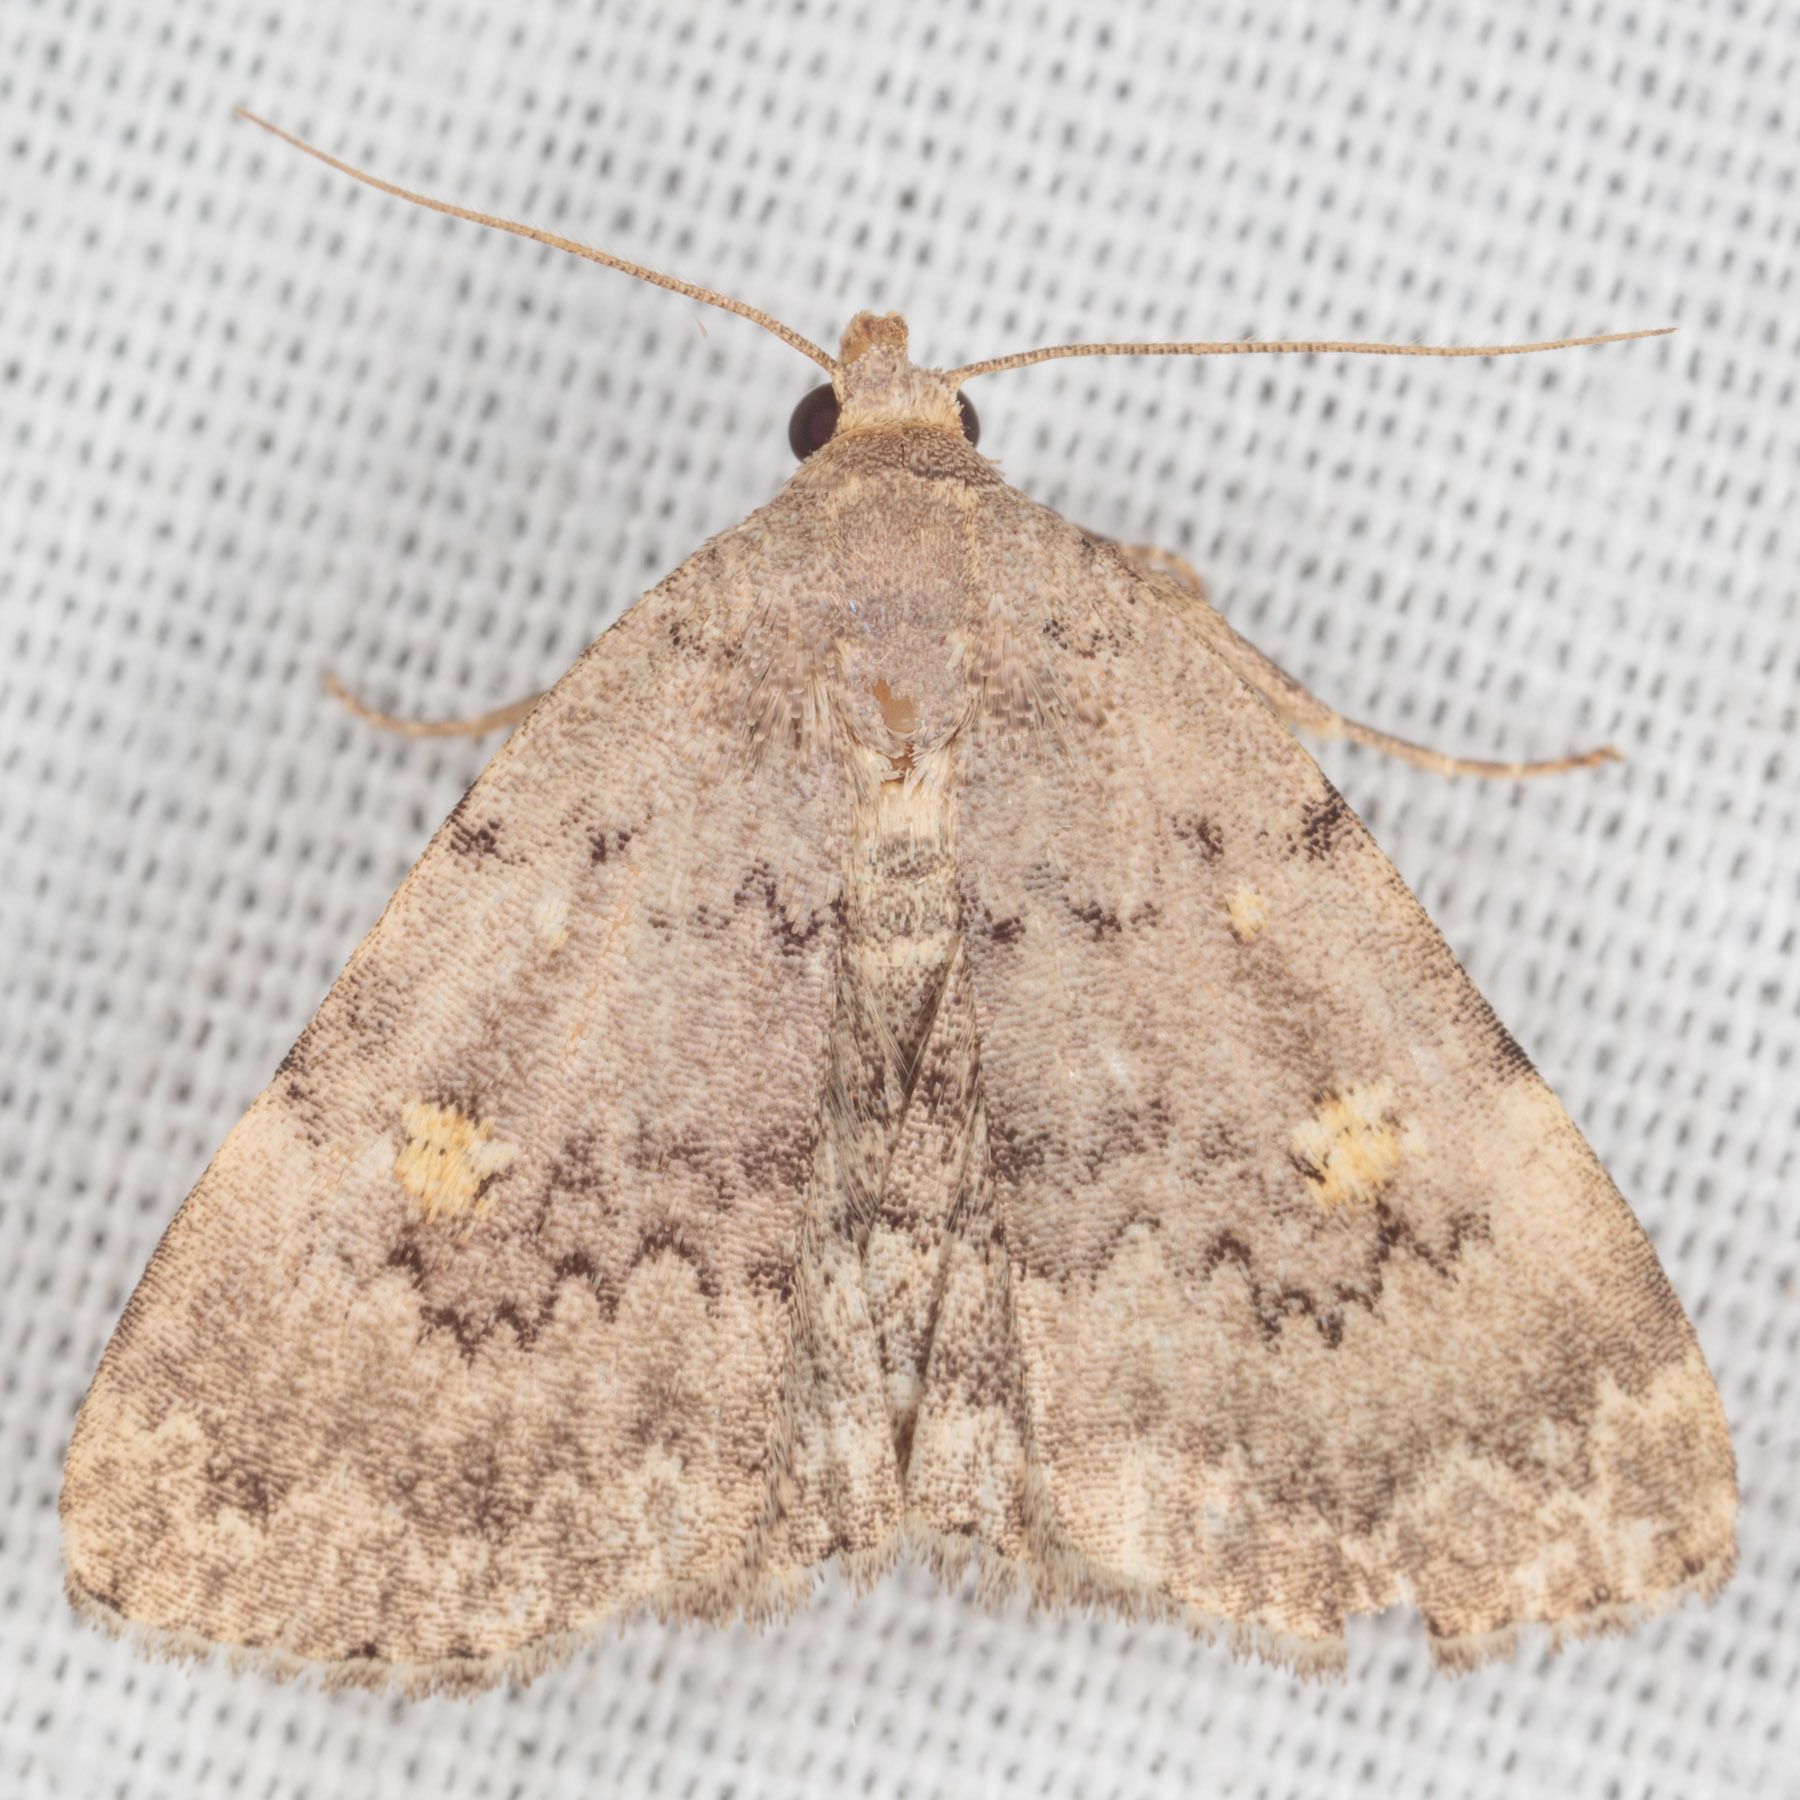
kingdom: Animalia
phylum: Arthropoda
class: Insecta
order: Lepidoptera
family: Erebidae
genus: Idia
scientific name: Idia aemula
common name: Common idia moth
